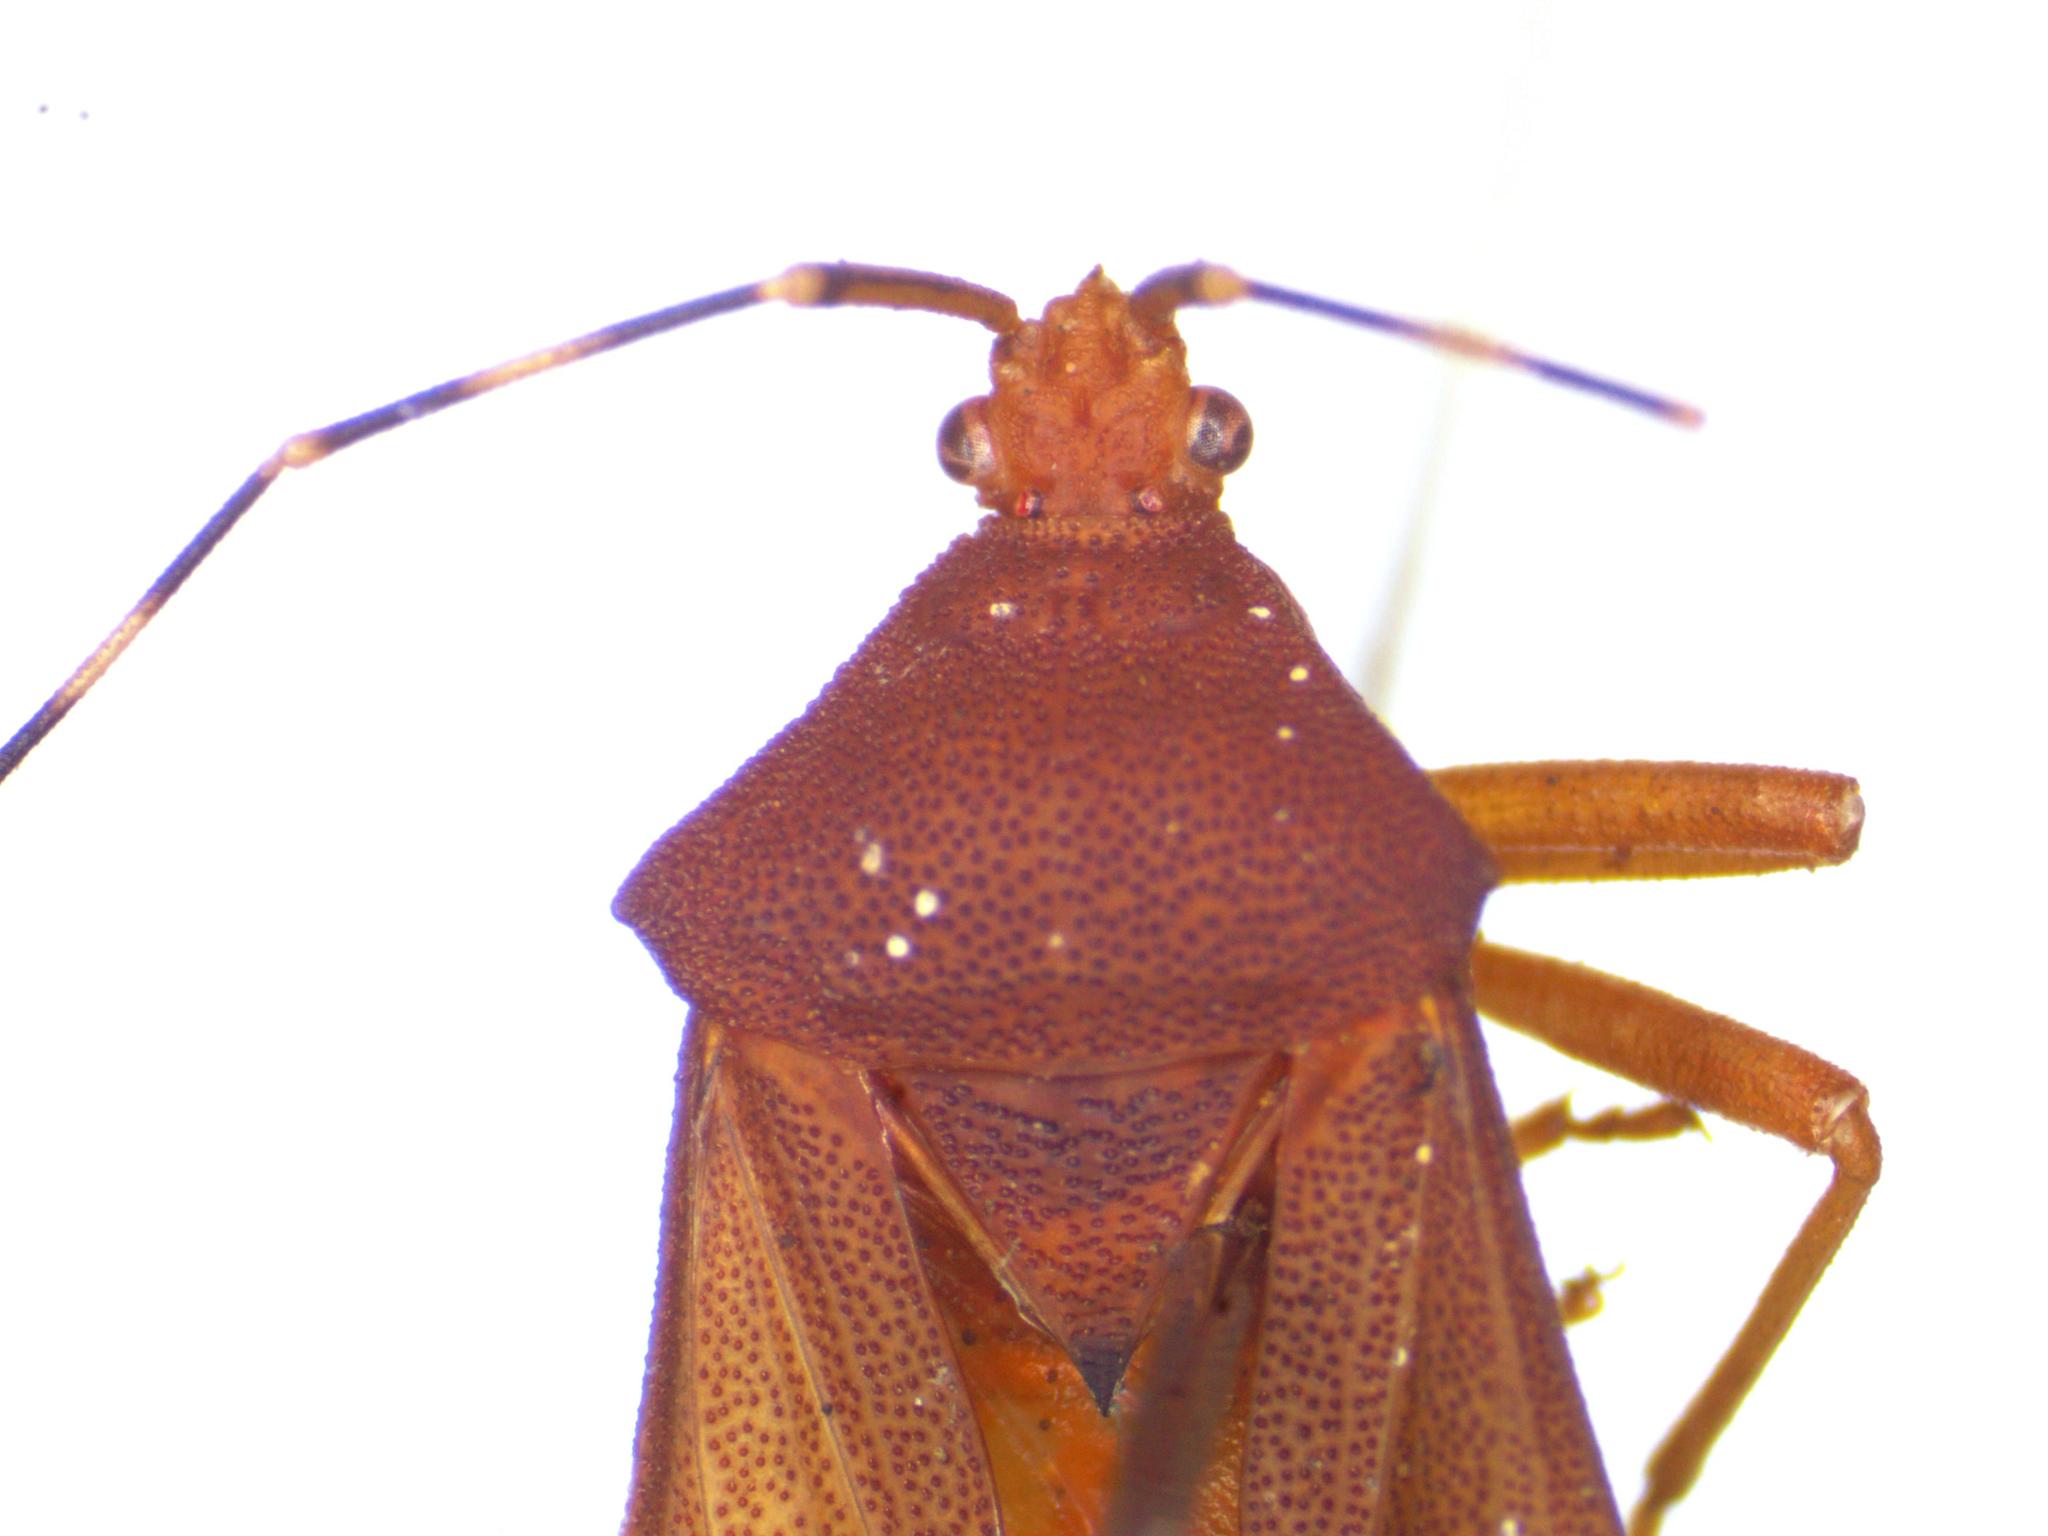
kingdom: Animalia
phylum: Arthropoda
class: Insecta
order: Hemiptera
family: Coreidae
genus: Anasa
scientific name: Anasa bellator
